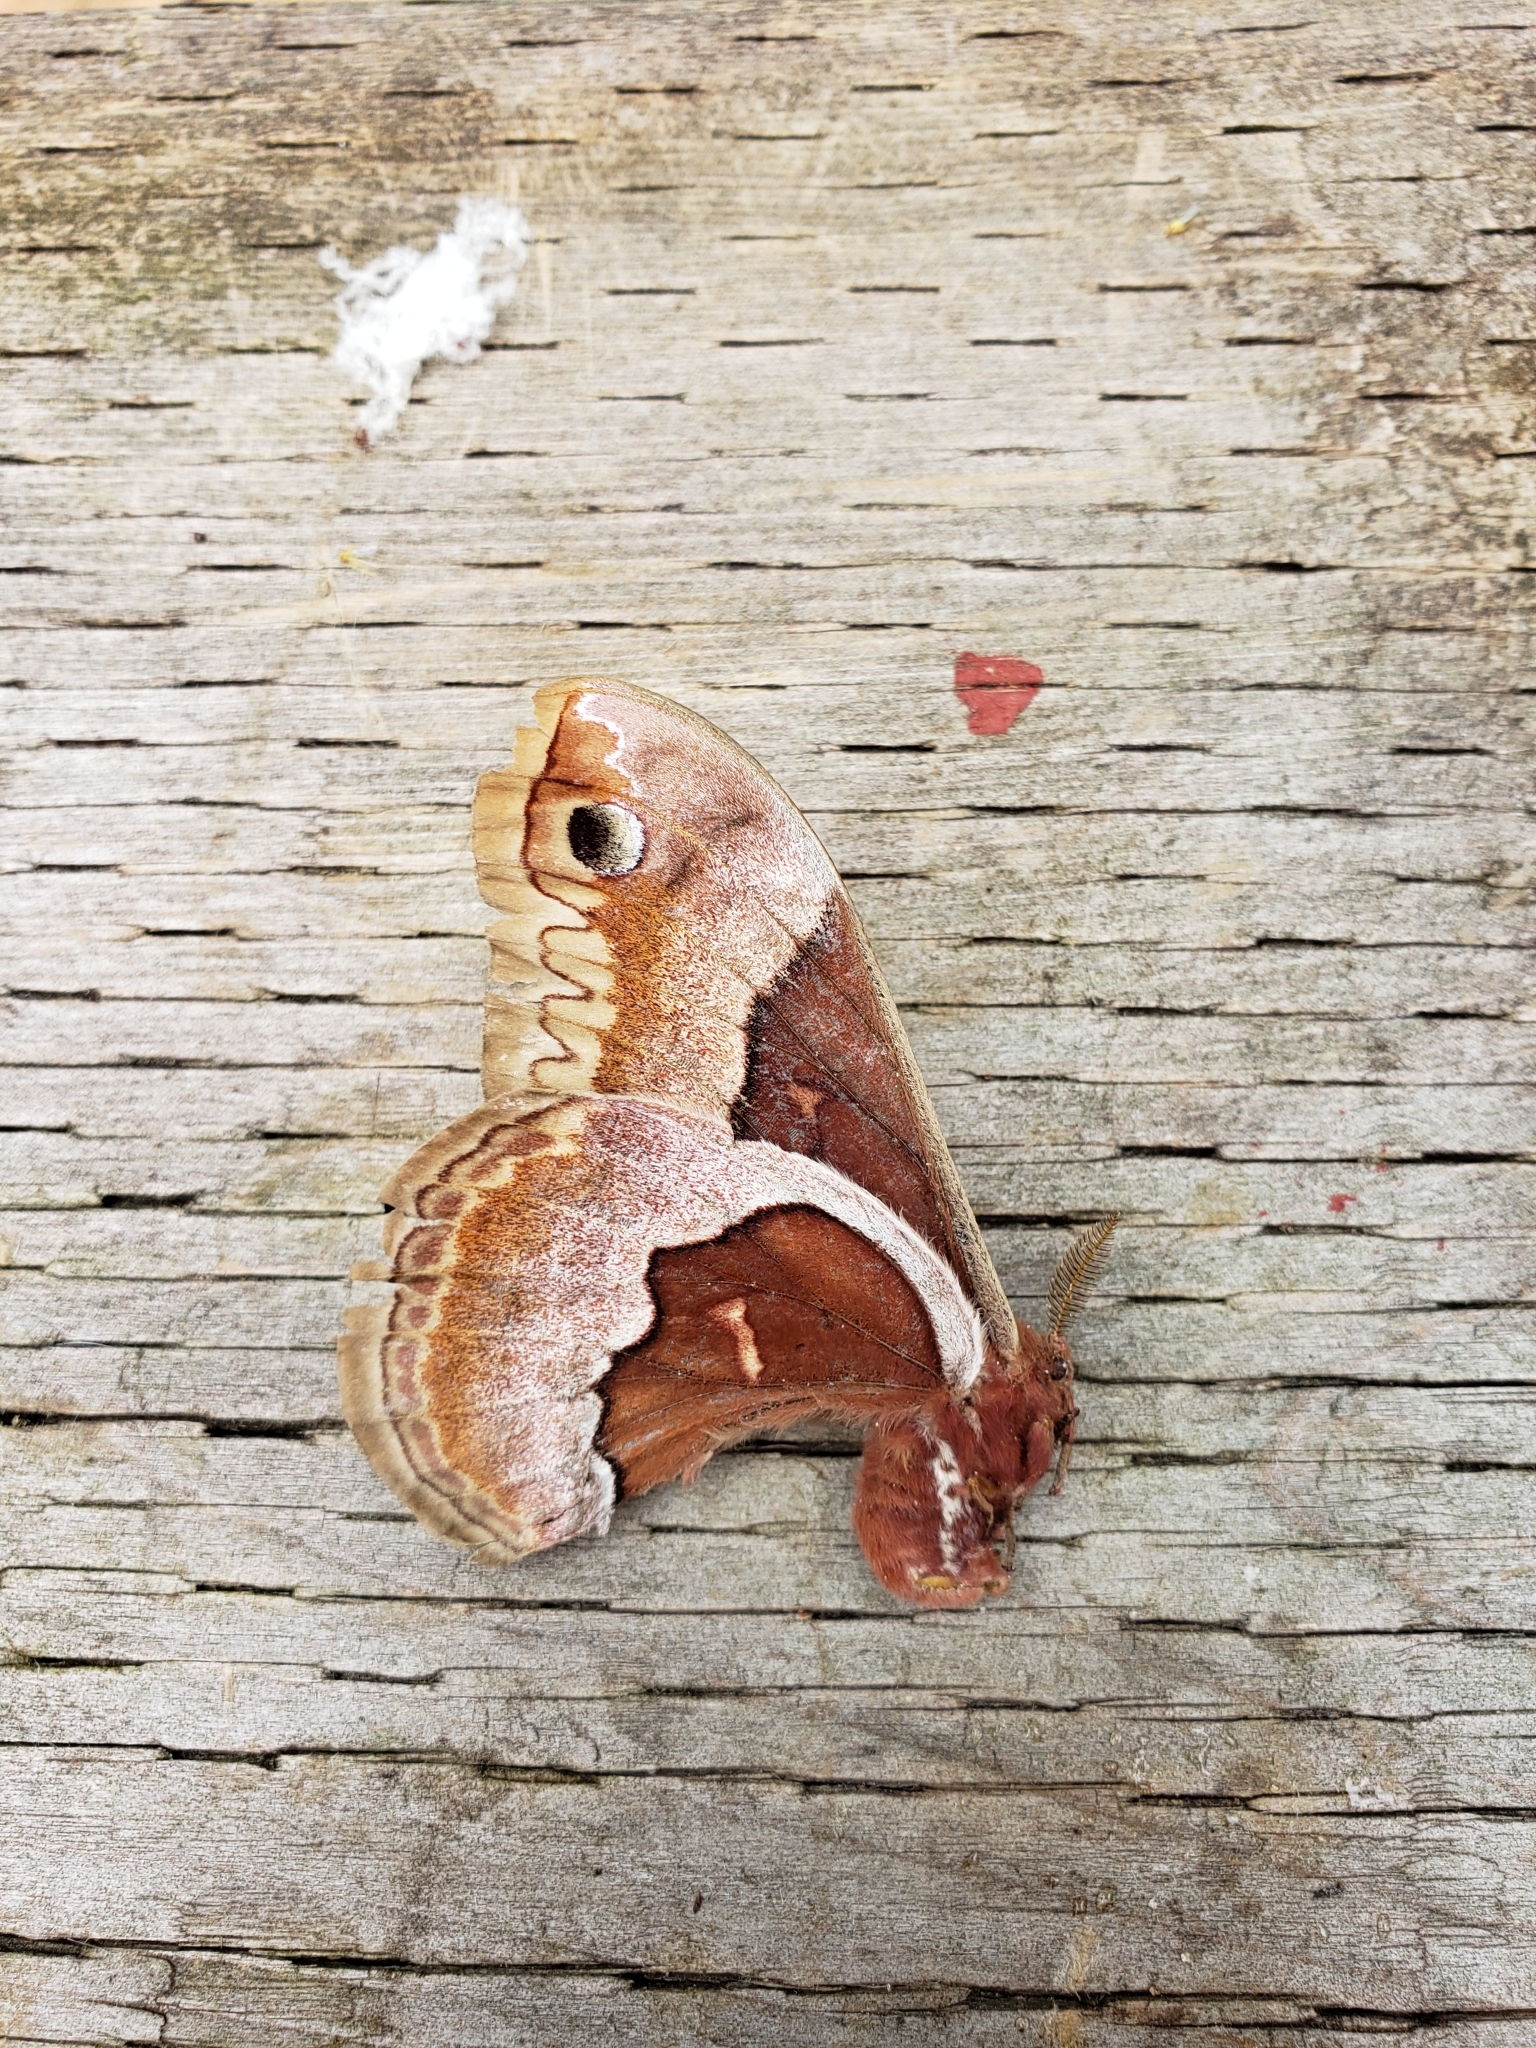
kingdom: Animalia
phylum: Arthropoda
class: Insecta
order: Lepidoptera
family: Saturniidae
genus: Callosamia
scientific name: Callosamia promethea
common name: Promethea silkmoth
